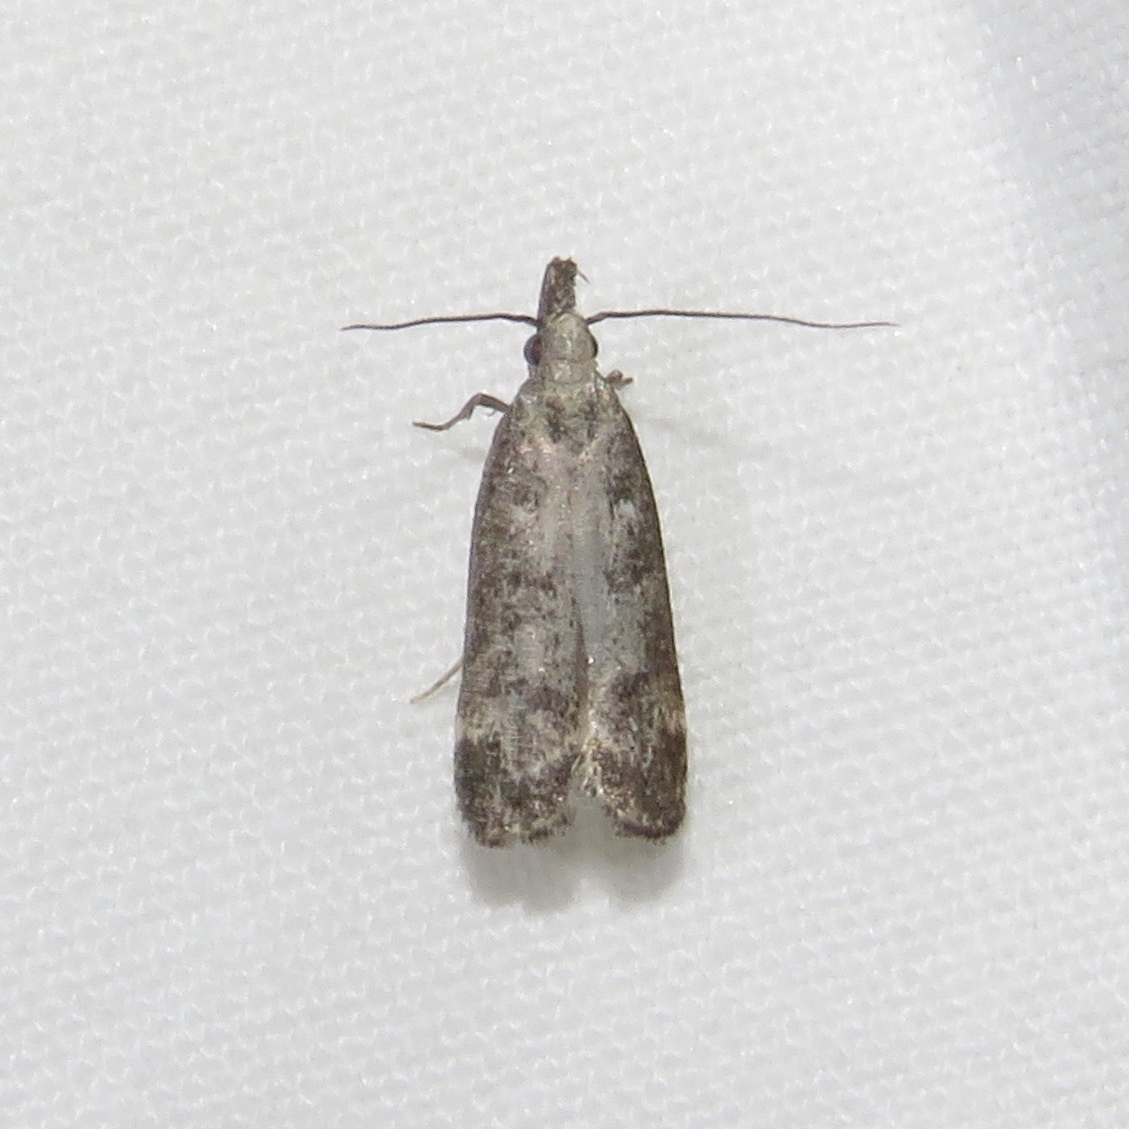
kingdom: Animalia
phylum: Arthropoda
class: Insecta
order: Lepidoptera
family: Gelechiidae
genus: Dichomeris
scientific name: Dichomeris inversella
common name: Inverse dichomeris moth
